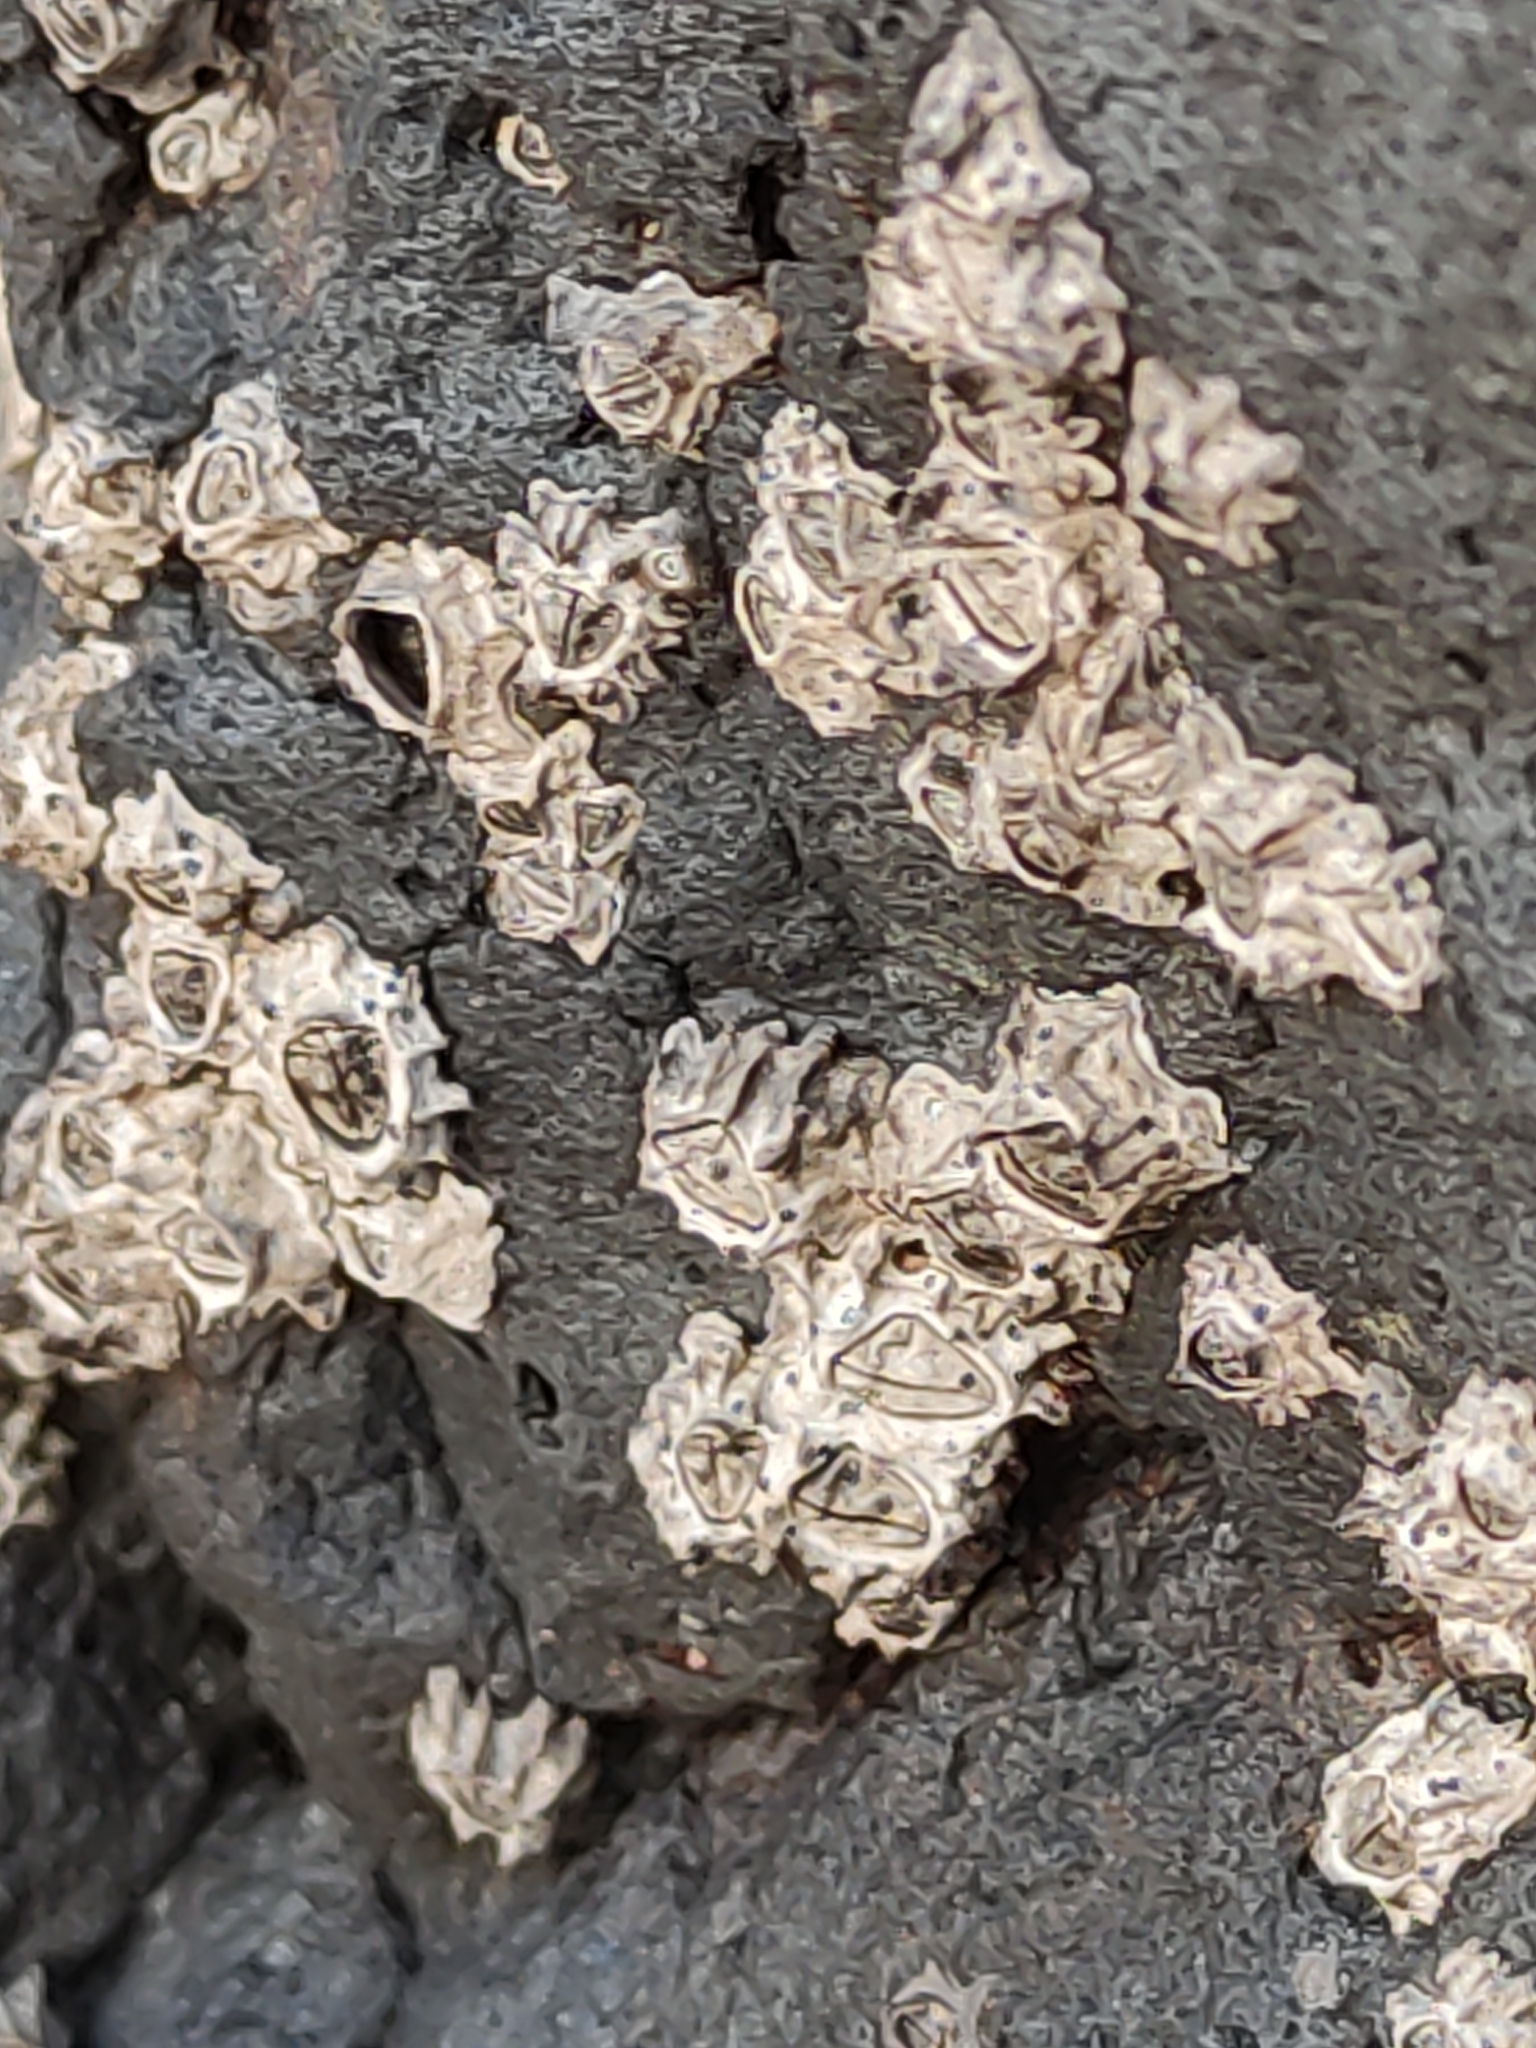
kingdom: Animalia
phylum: Arthropoda
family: Elminiidae
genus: Austrominius
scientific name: Austrominius modestus
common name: Australasian barnacle
